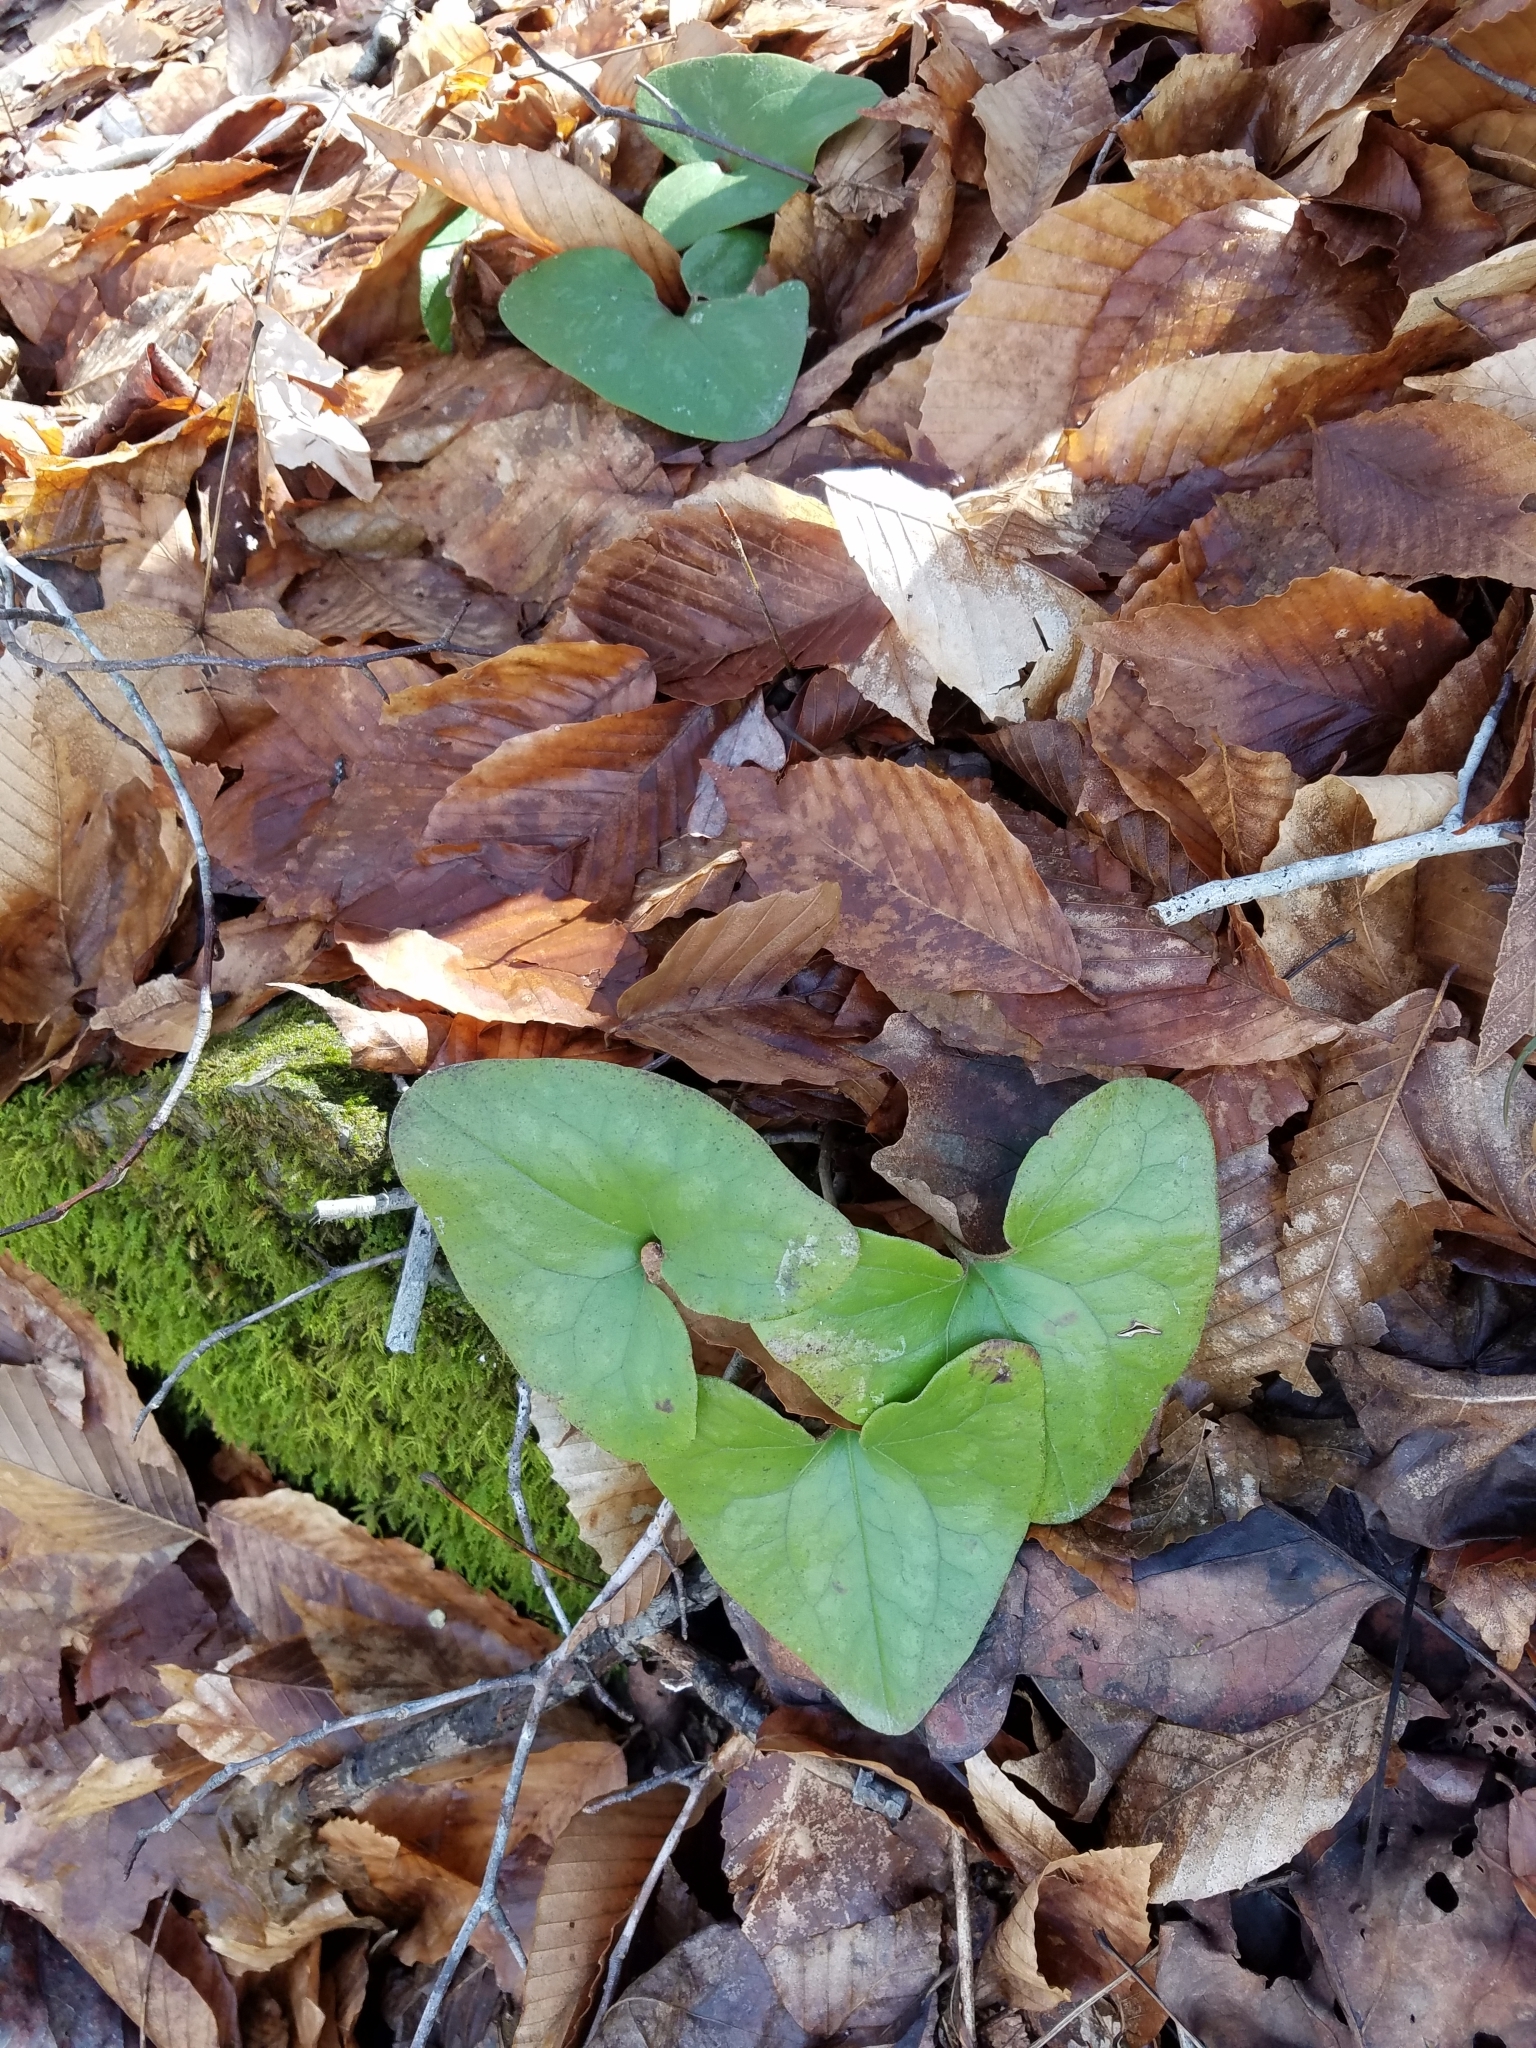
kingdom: Plantae
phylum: Tracheophyta
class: Magnoliopsida
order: Piperales
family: Aristolochiaceae
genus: Hexastylis
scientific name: Hexastylis arifolia
